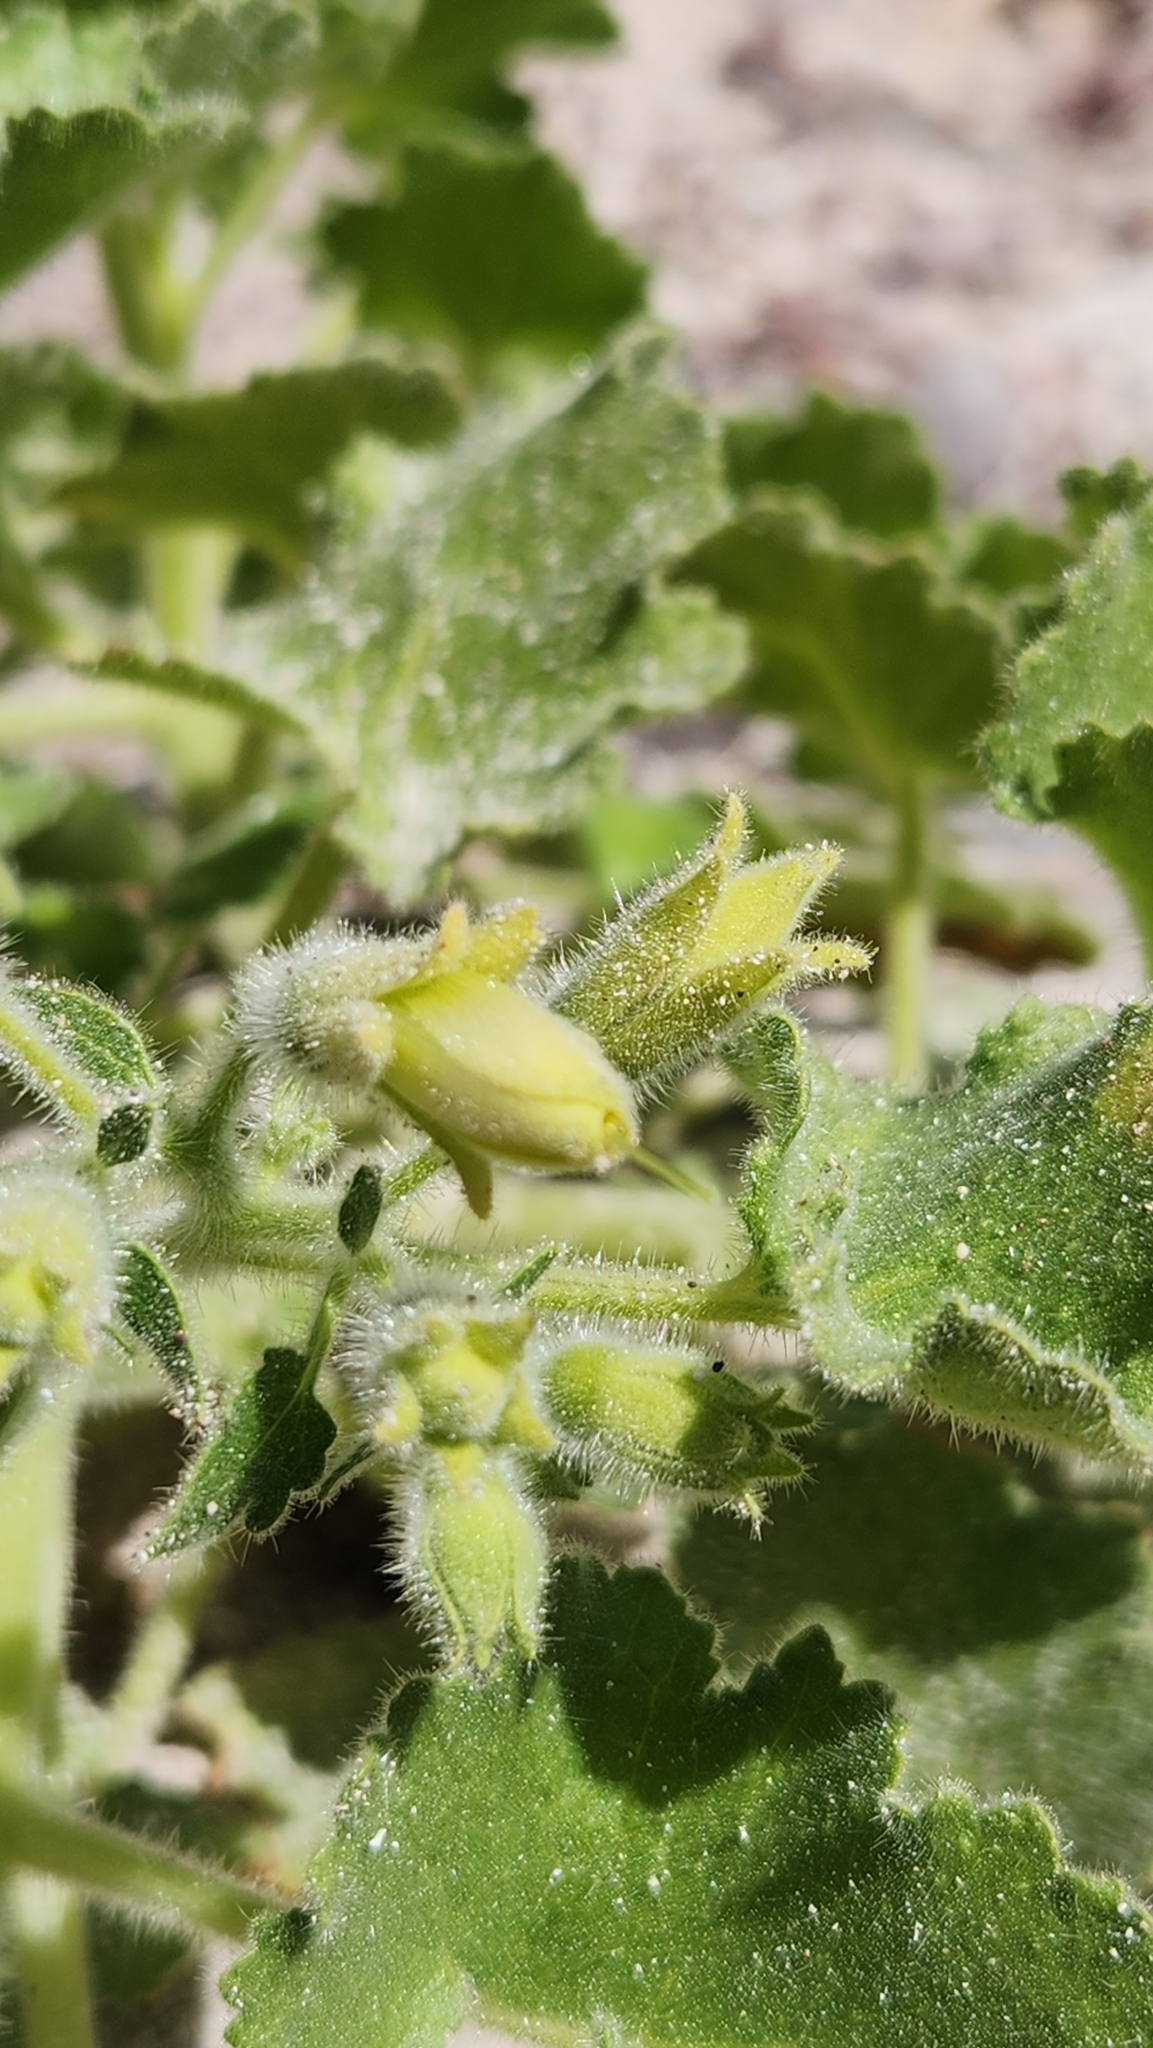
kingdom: Plantae
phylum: Tracheophyta
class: Magnoliopsida
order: Cornales
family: Loasaceae
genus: Eucnide
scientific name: Eucnide cordata
